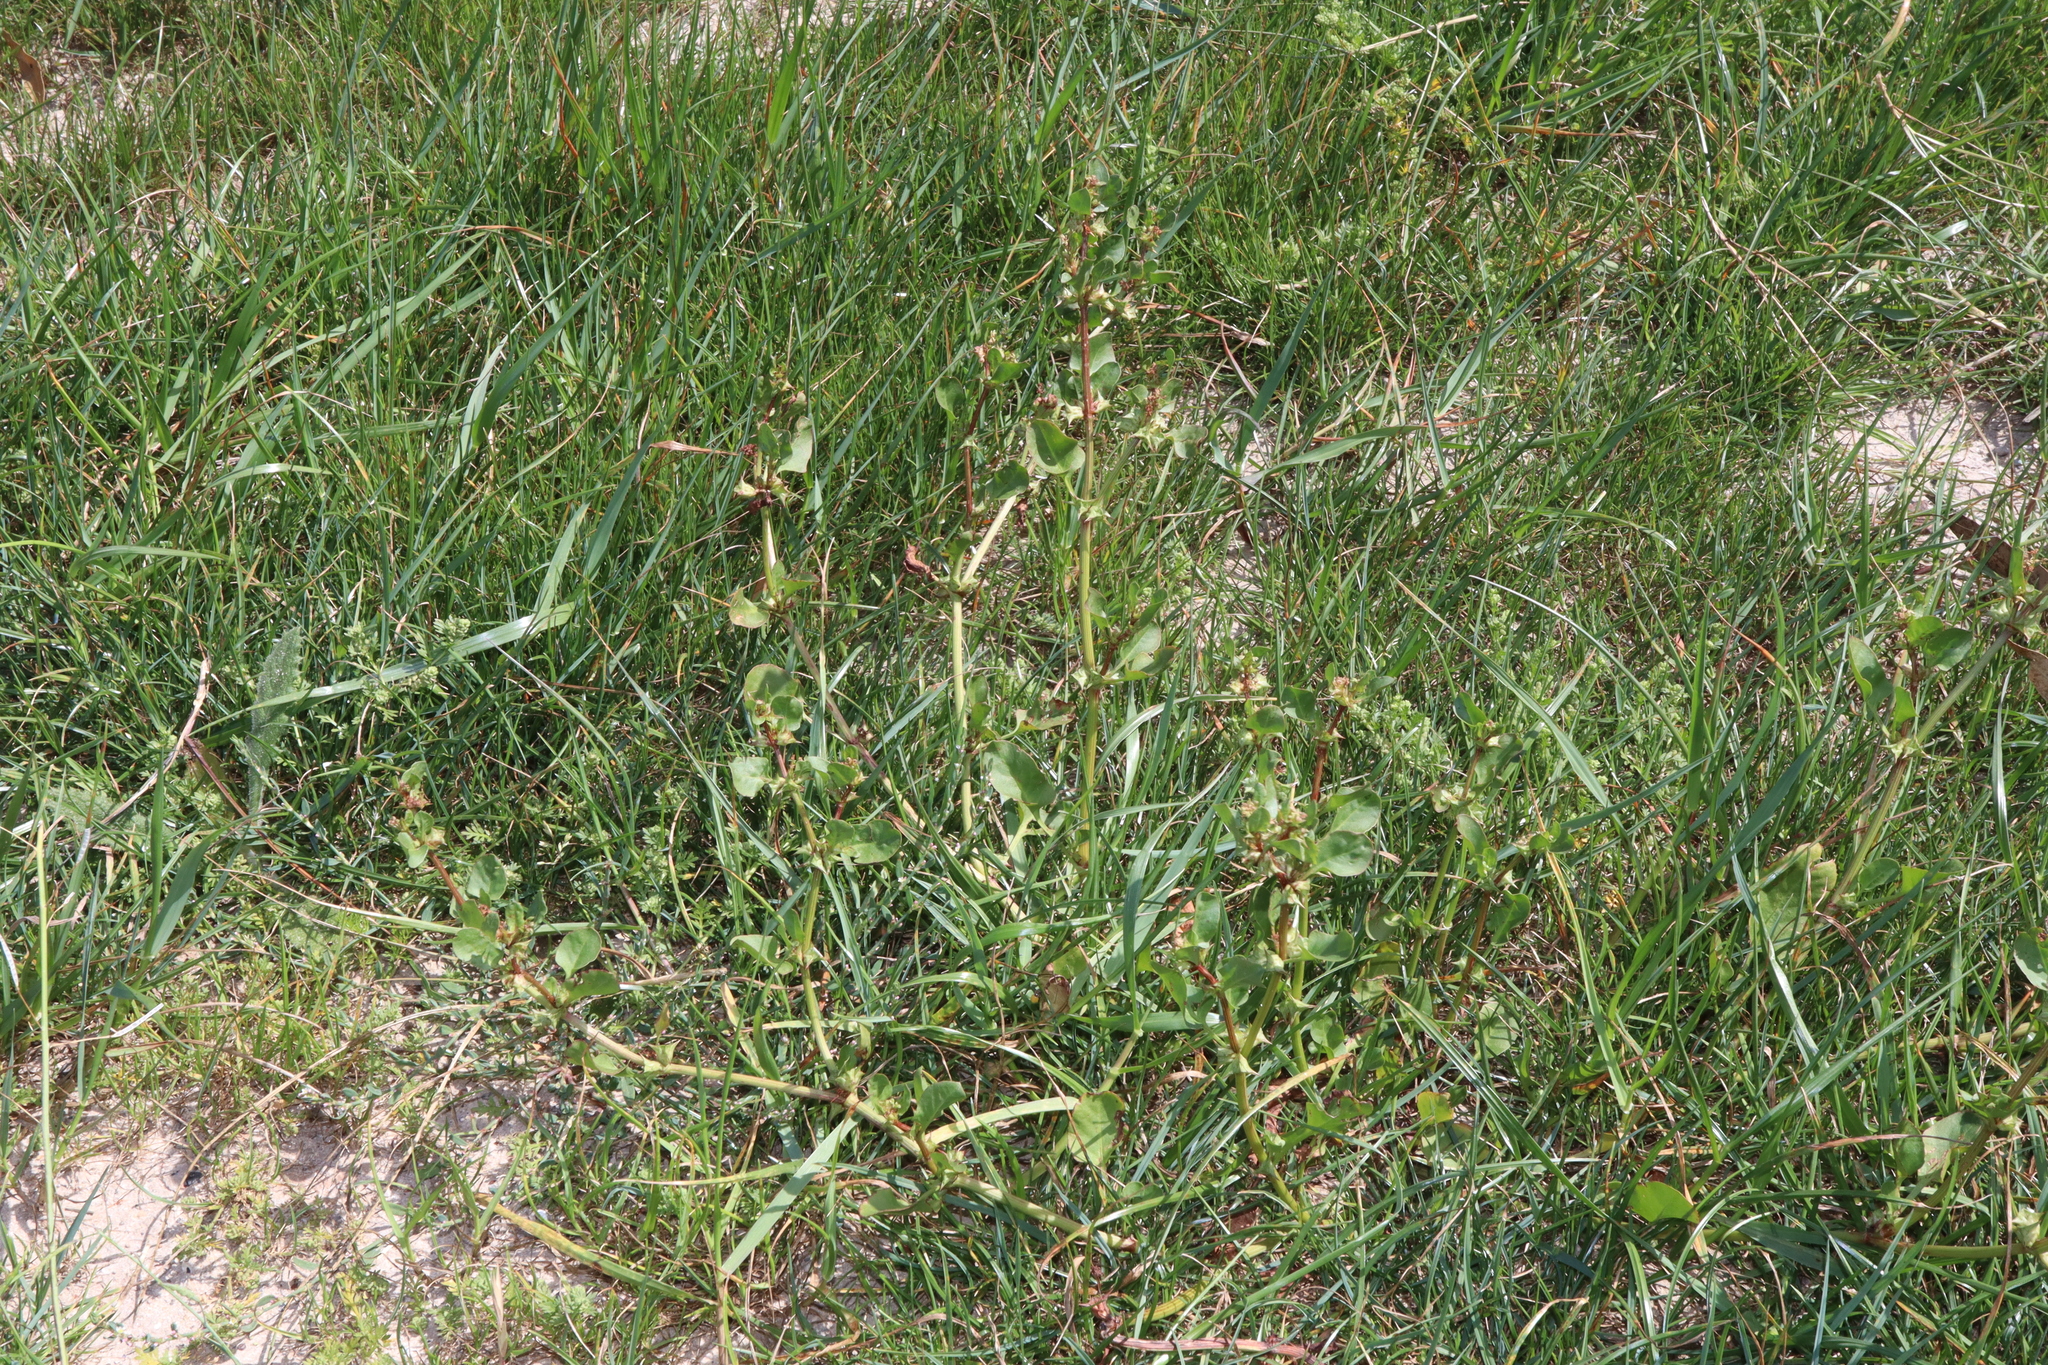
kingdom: Plantae
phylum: Tracheophyta
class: Magnoliopsida
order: Caryophyllales
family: Polygonaceae
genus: Rumex
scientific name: Rumex hypogaeus
